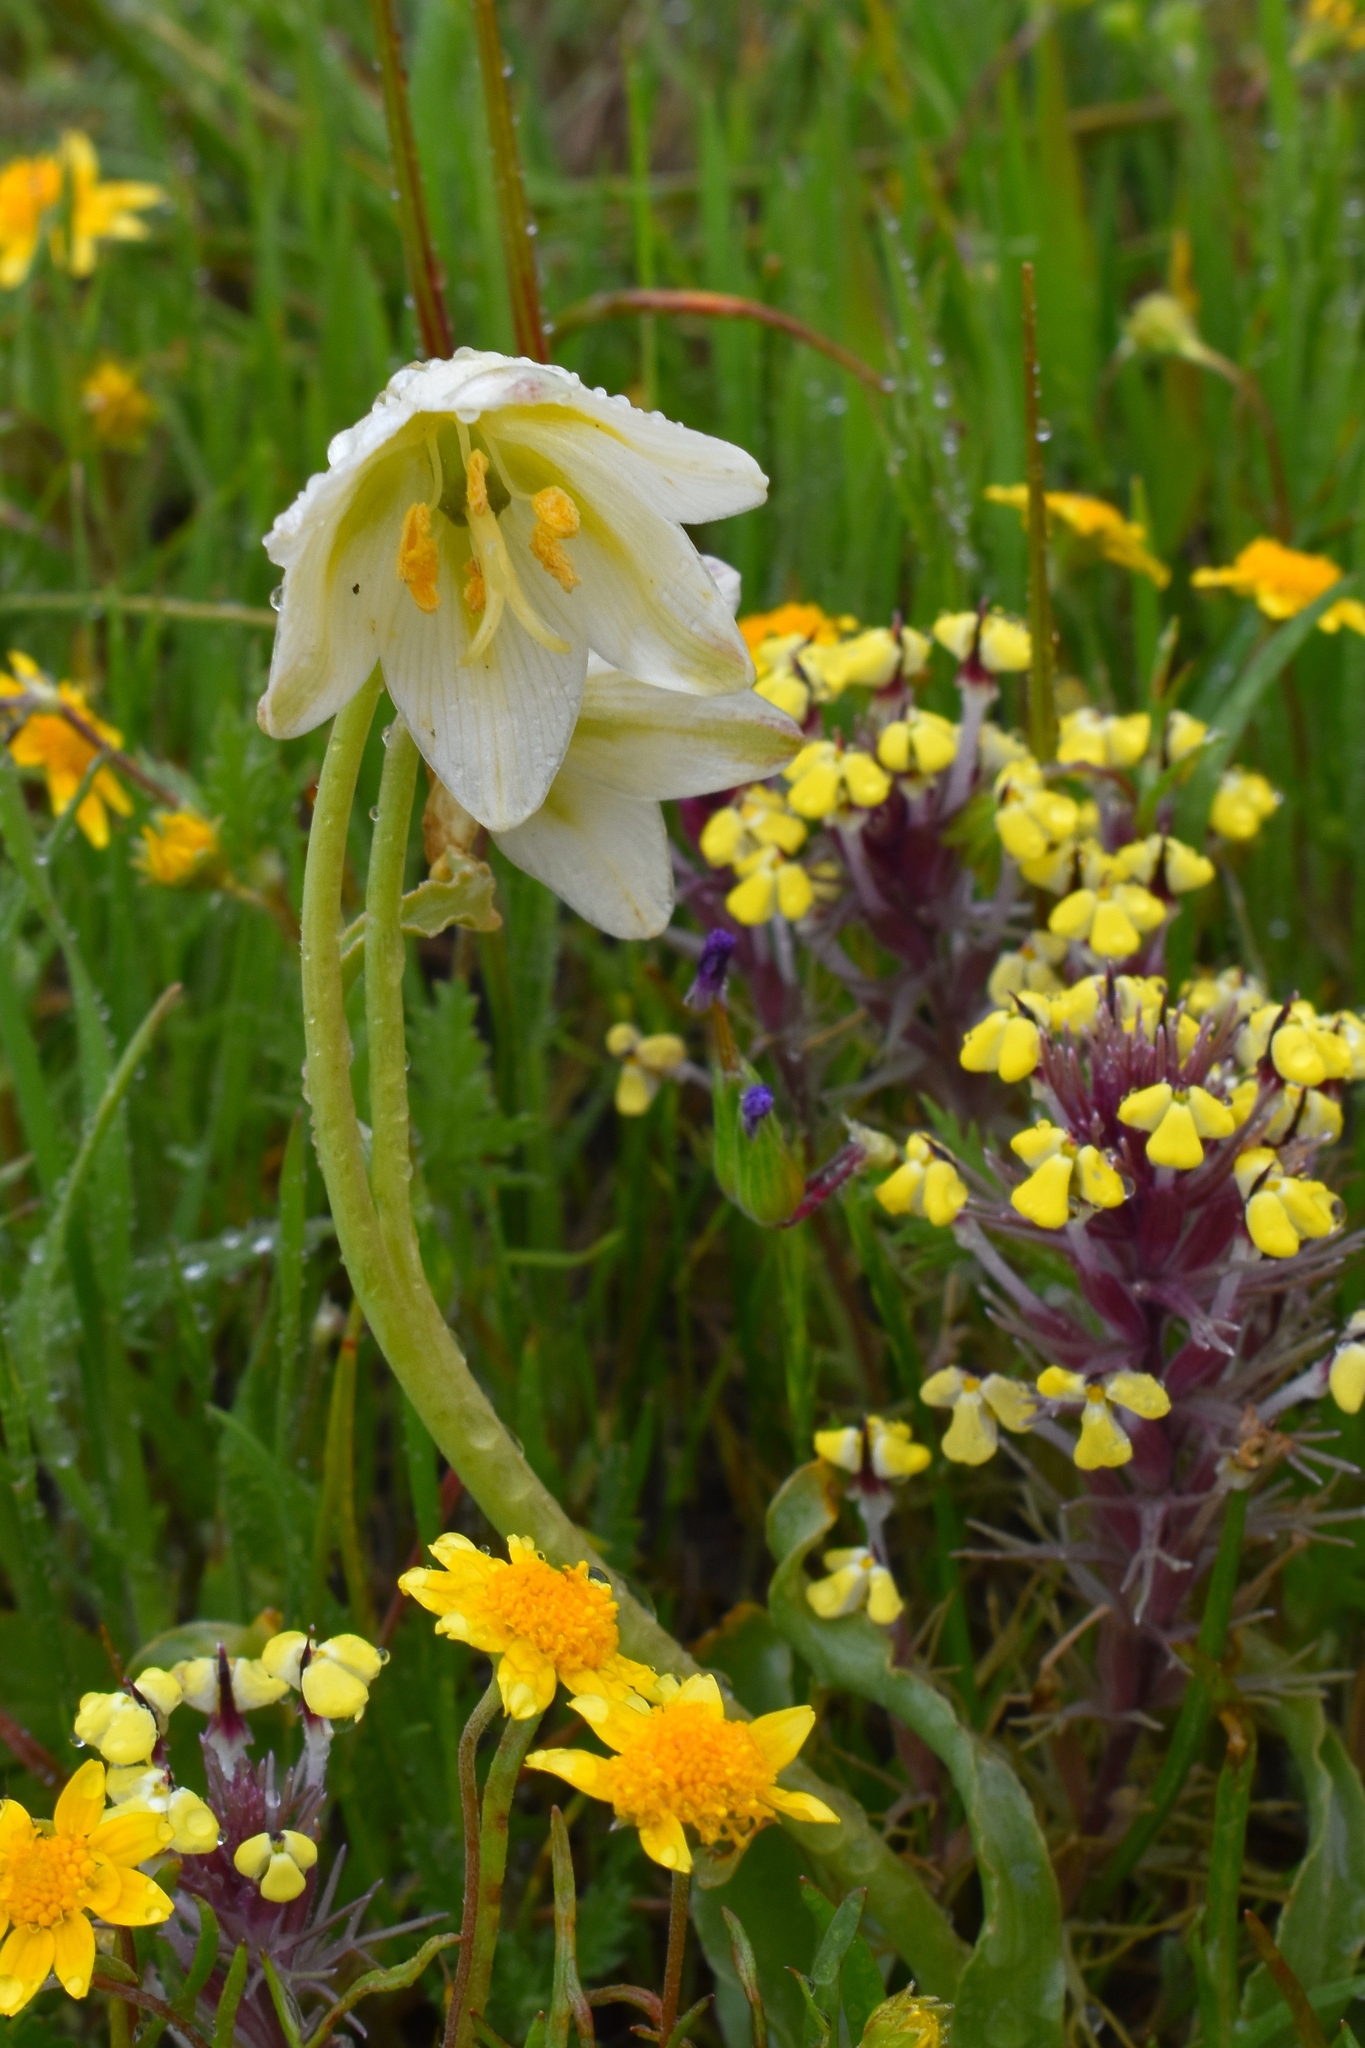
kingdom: Plantae
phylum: Tracheophyta
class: Liliopsida
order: Liliales
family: Liliaceae
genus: Fritillaria
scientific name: Fritillaria liliacea
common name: Fragrant fritillary
